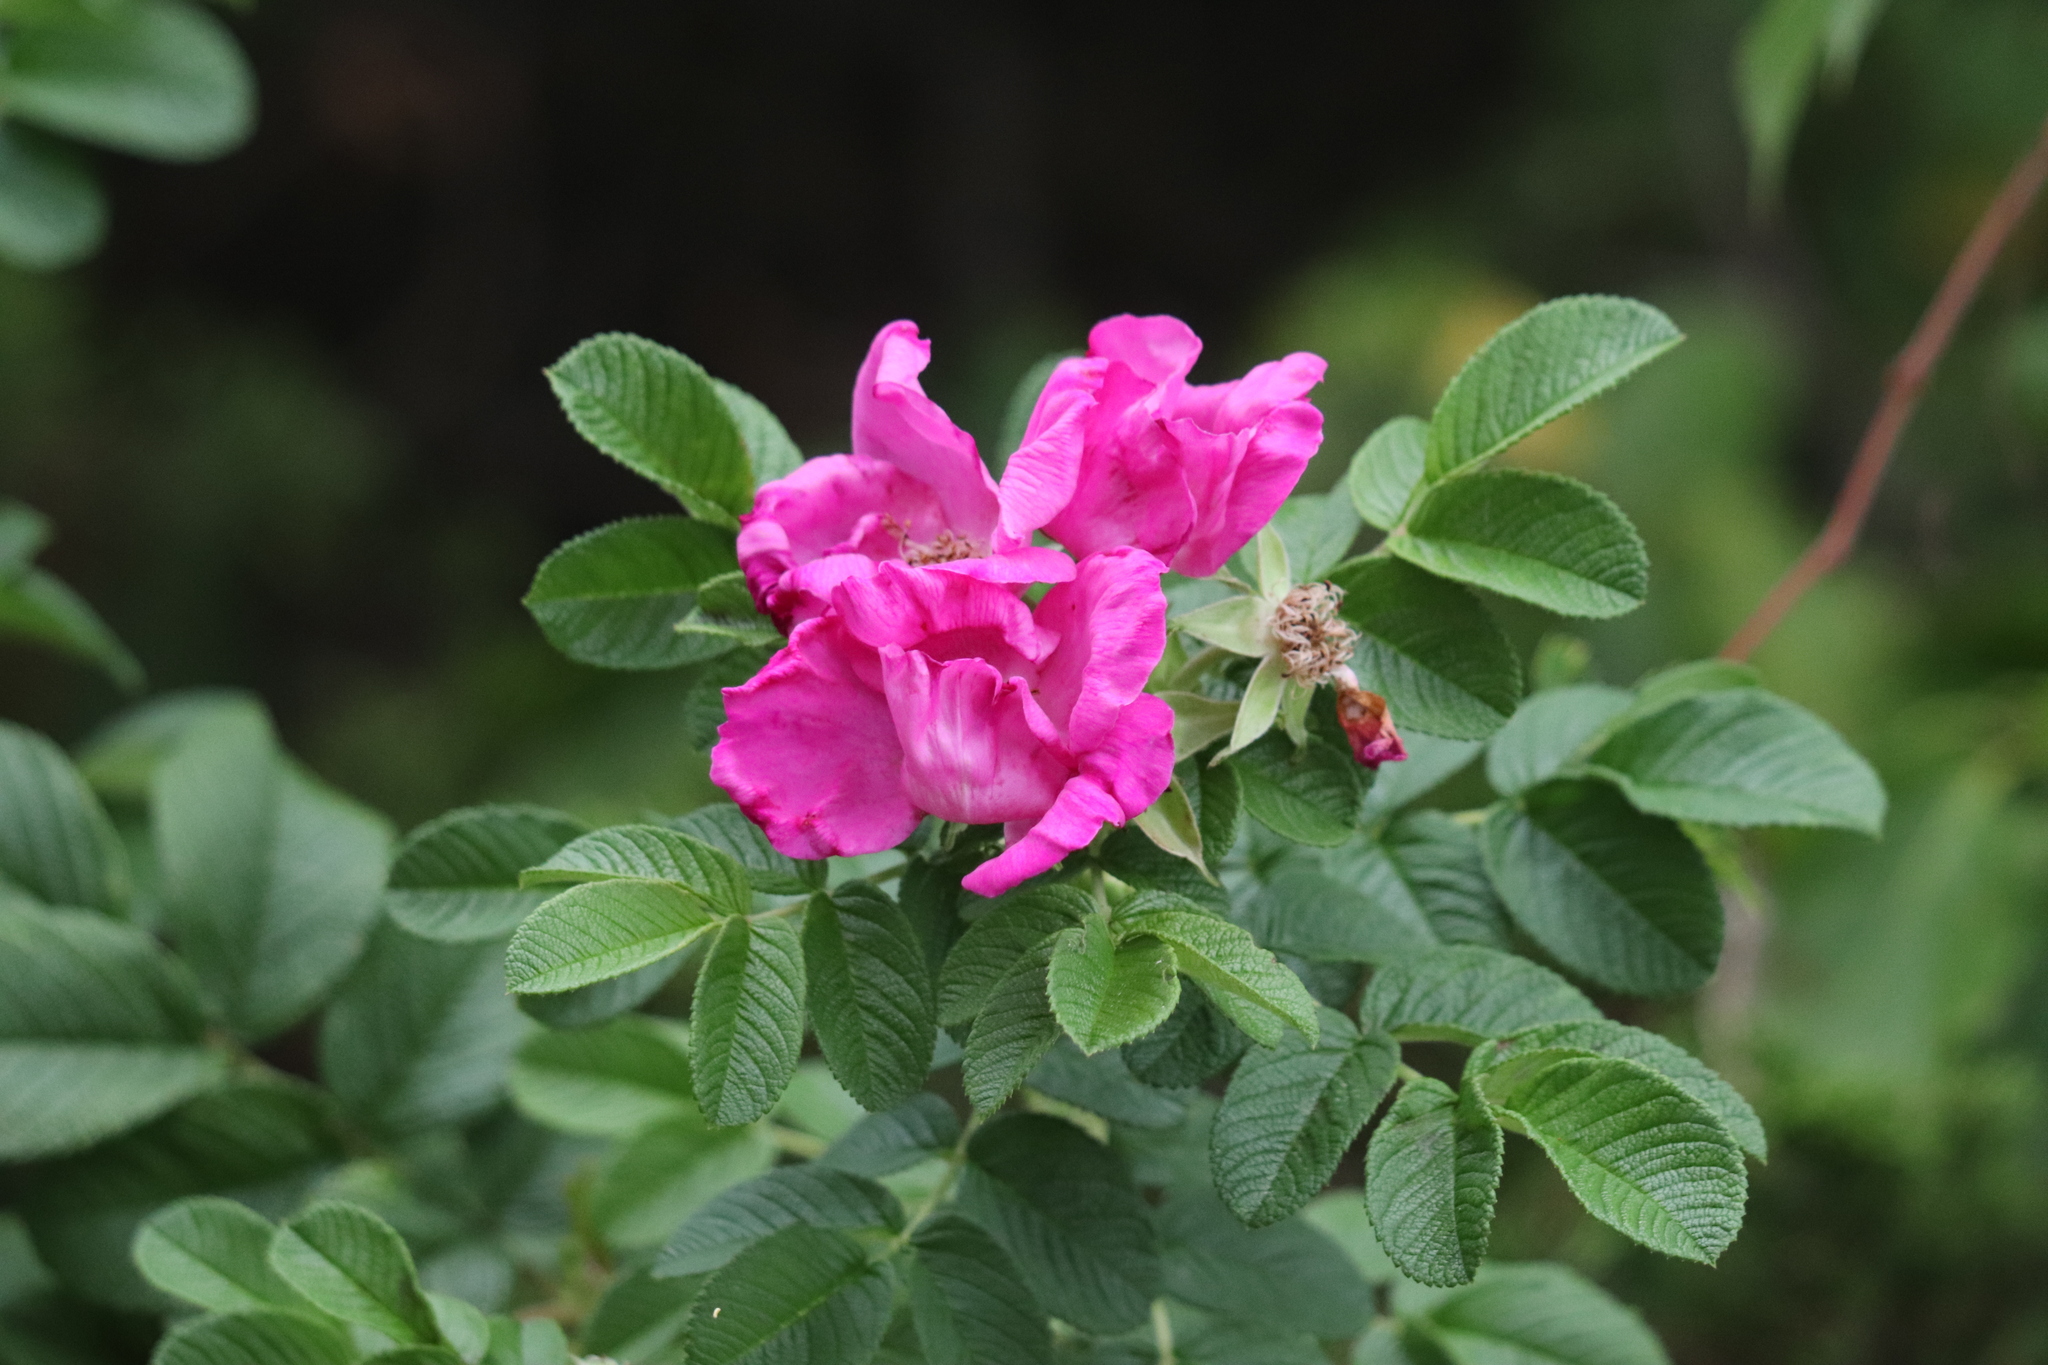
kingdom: Plantae
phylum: Tracheophyta
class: Magnoliopsida
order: Rosales
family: Rosaceae
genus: Rosa
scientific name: Rosa rugosa
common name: Japanese rose
